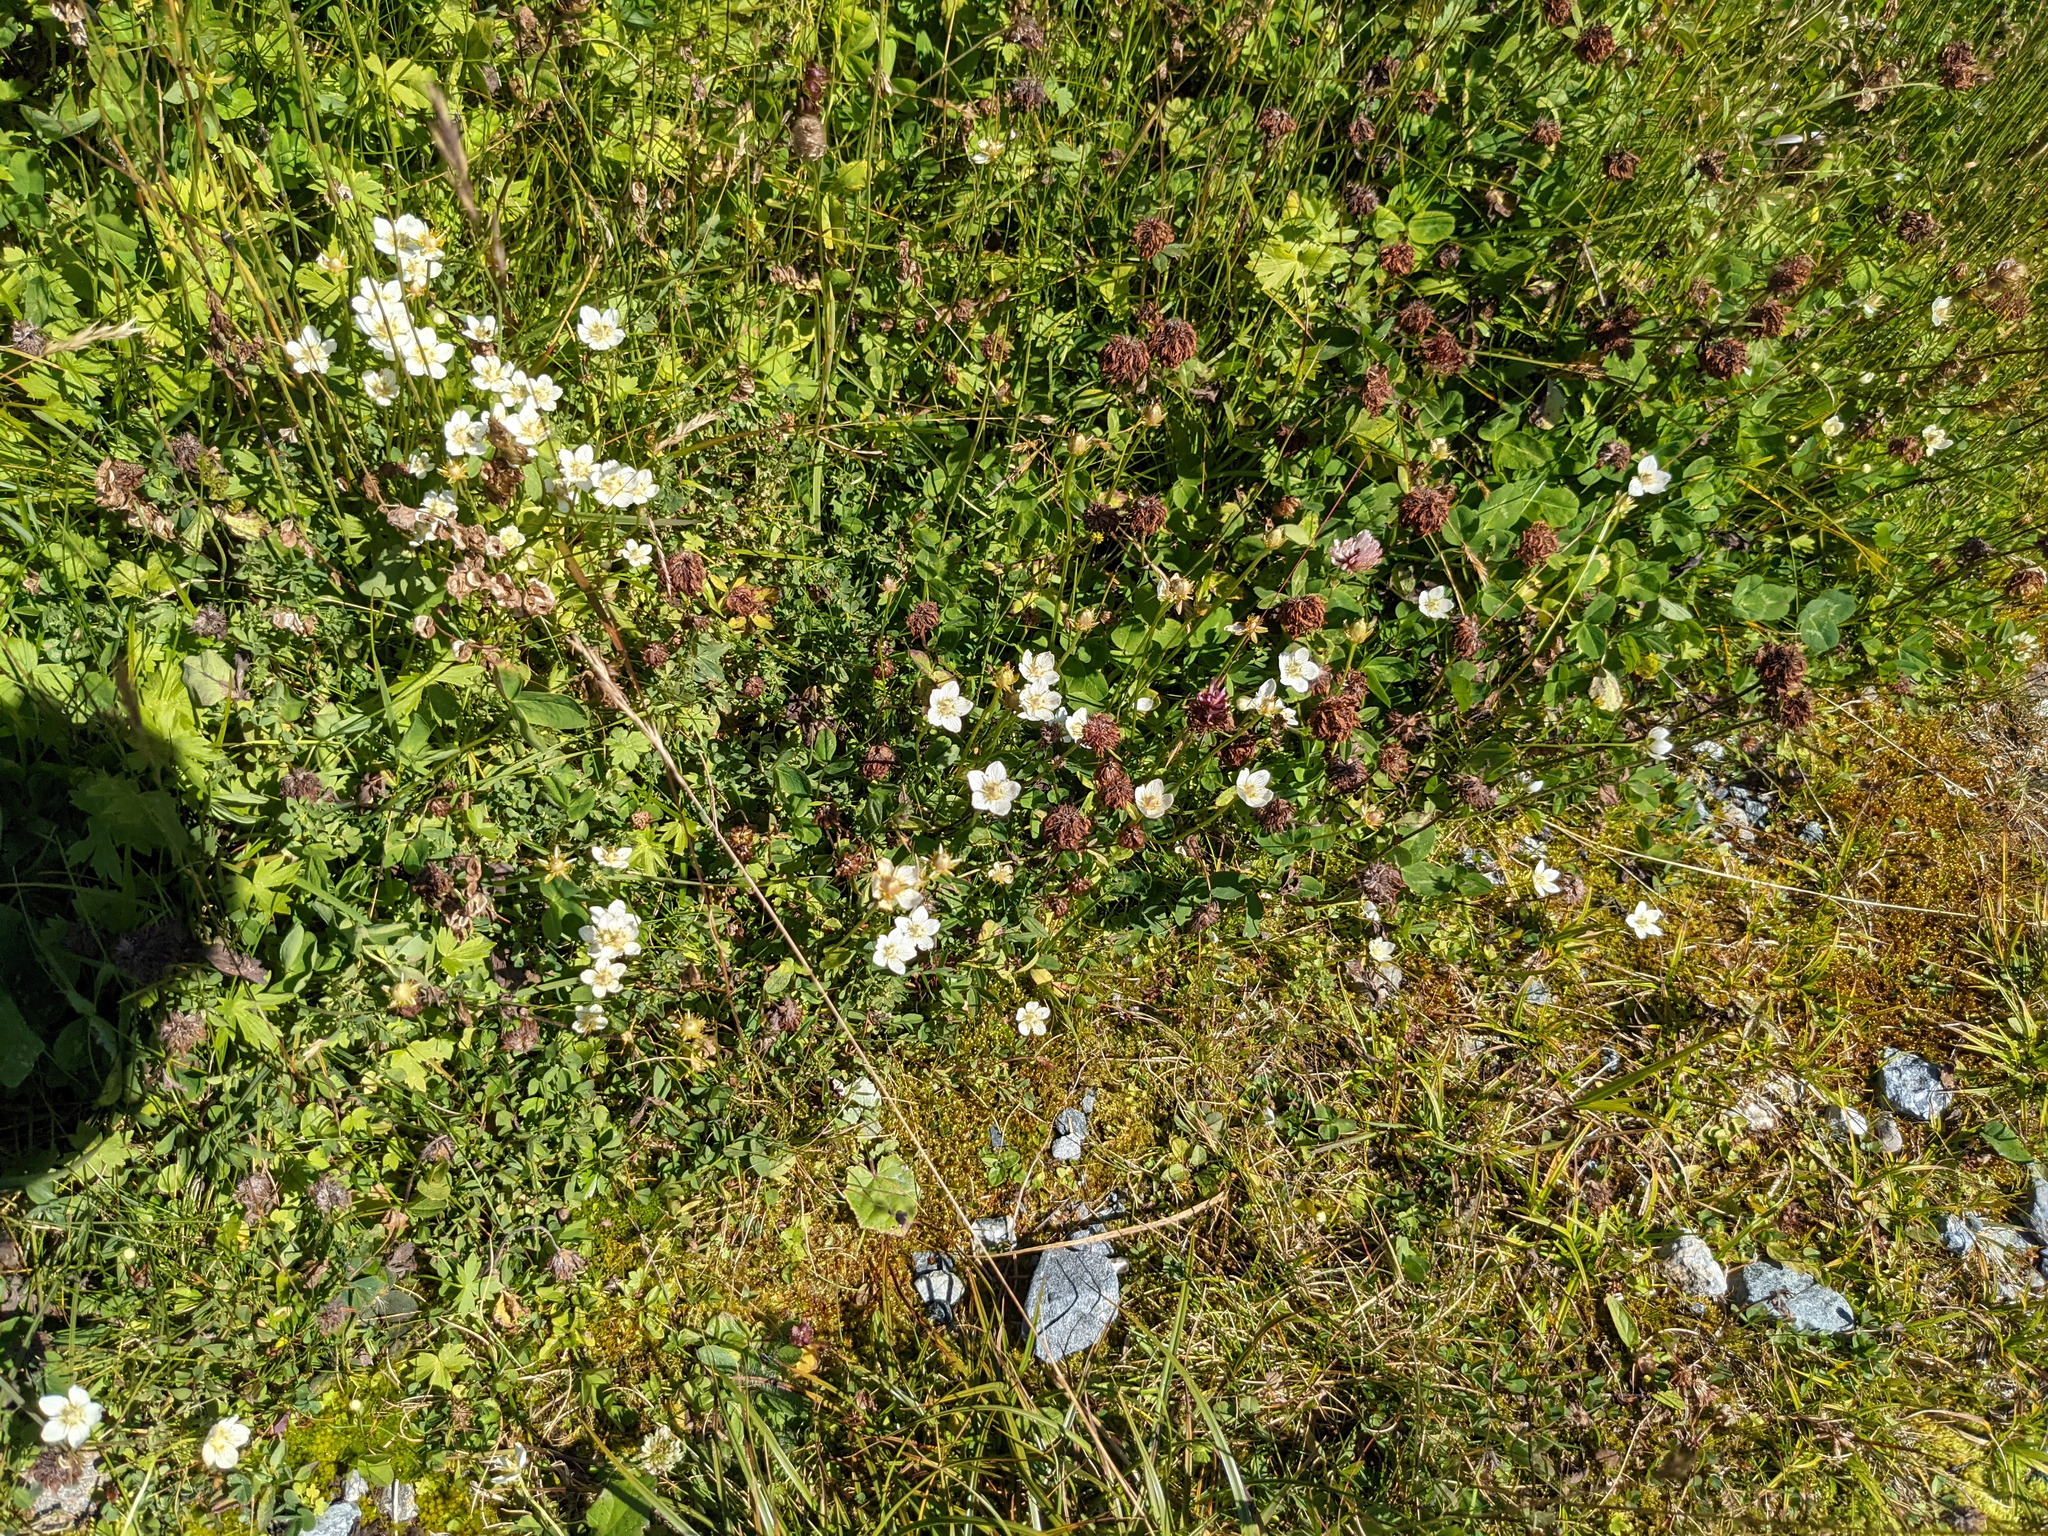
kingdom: Plantae
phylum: Tracheophyta
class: Magnoliopsida
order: Celastrales
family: Parnassiaceae
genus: Parnassia
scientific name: Parnassia palustris
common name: Grass-of-parnassus
